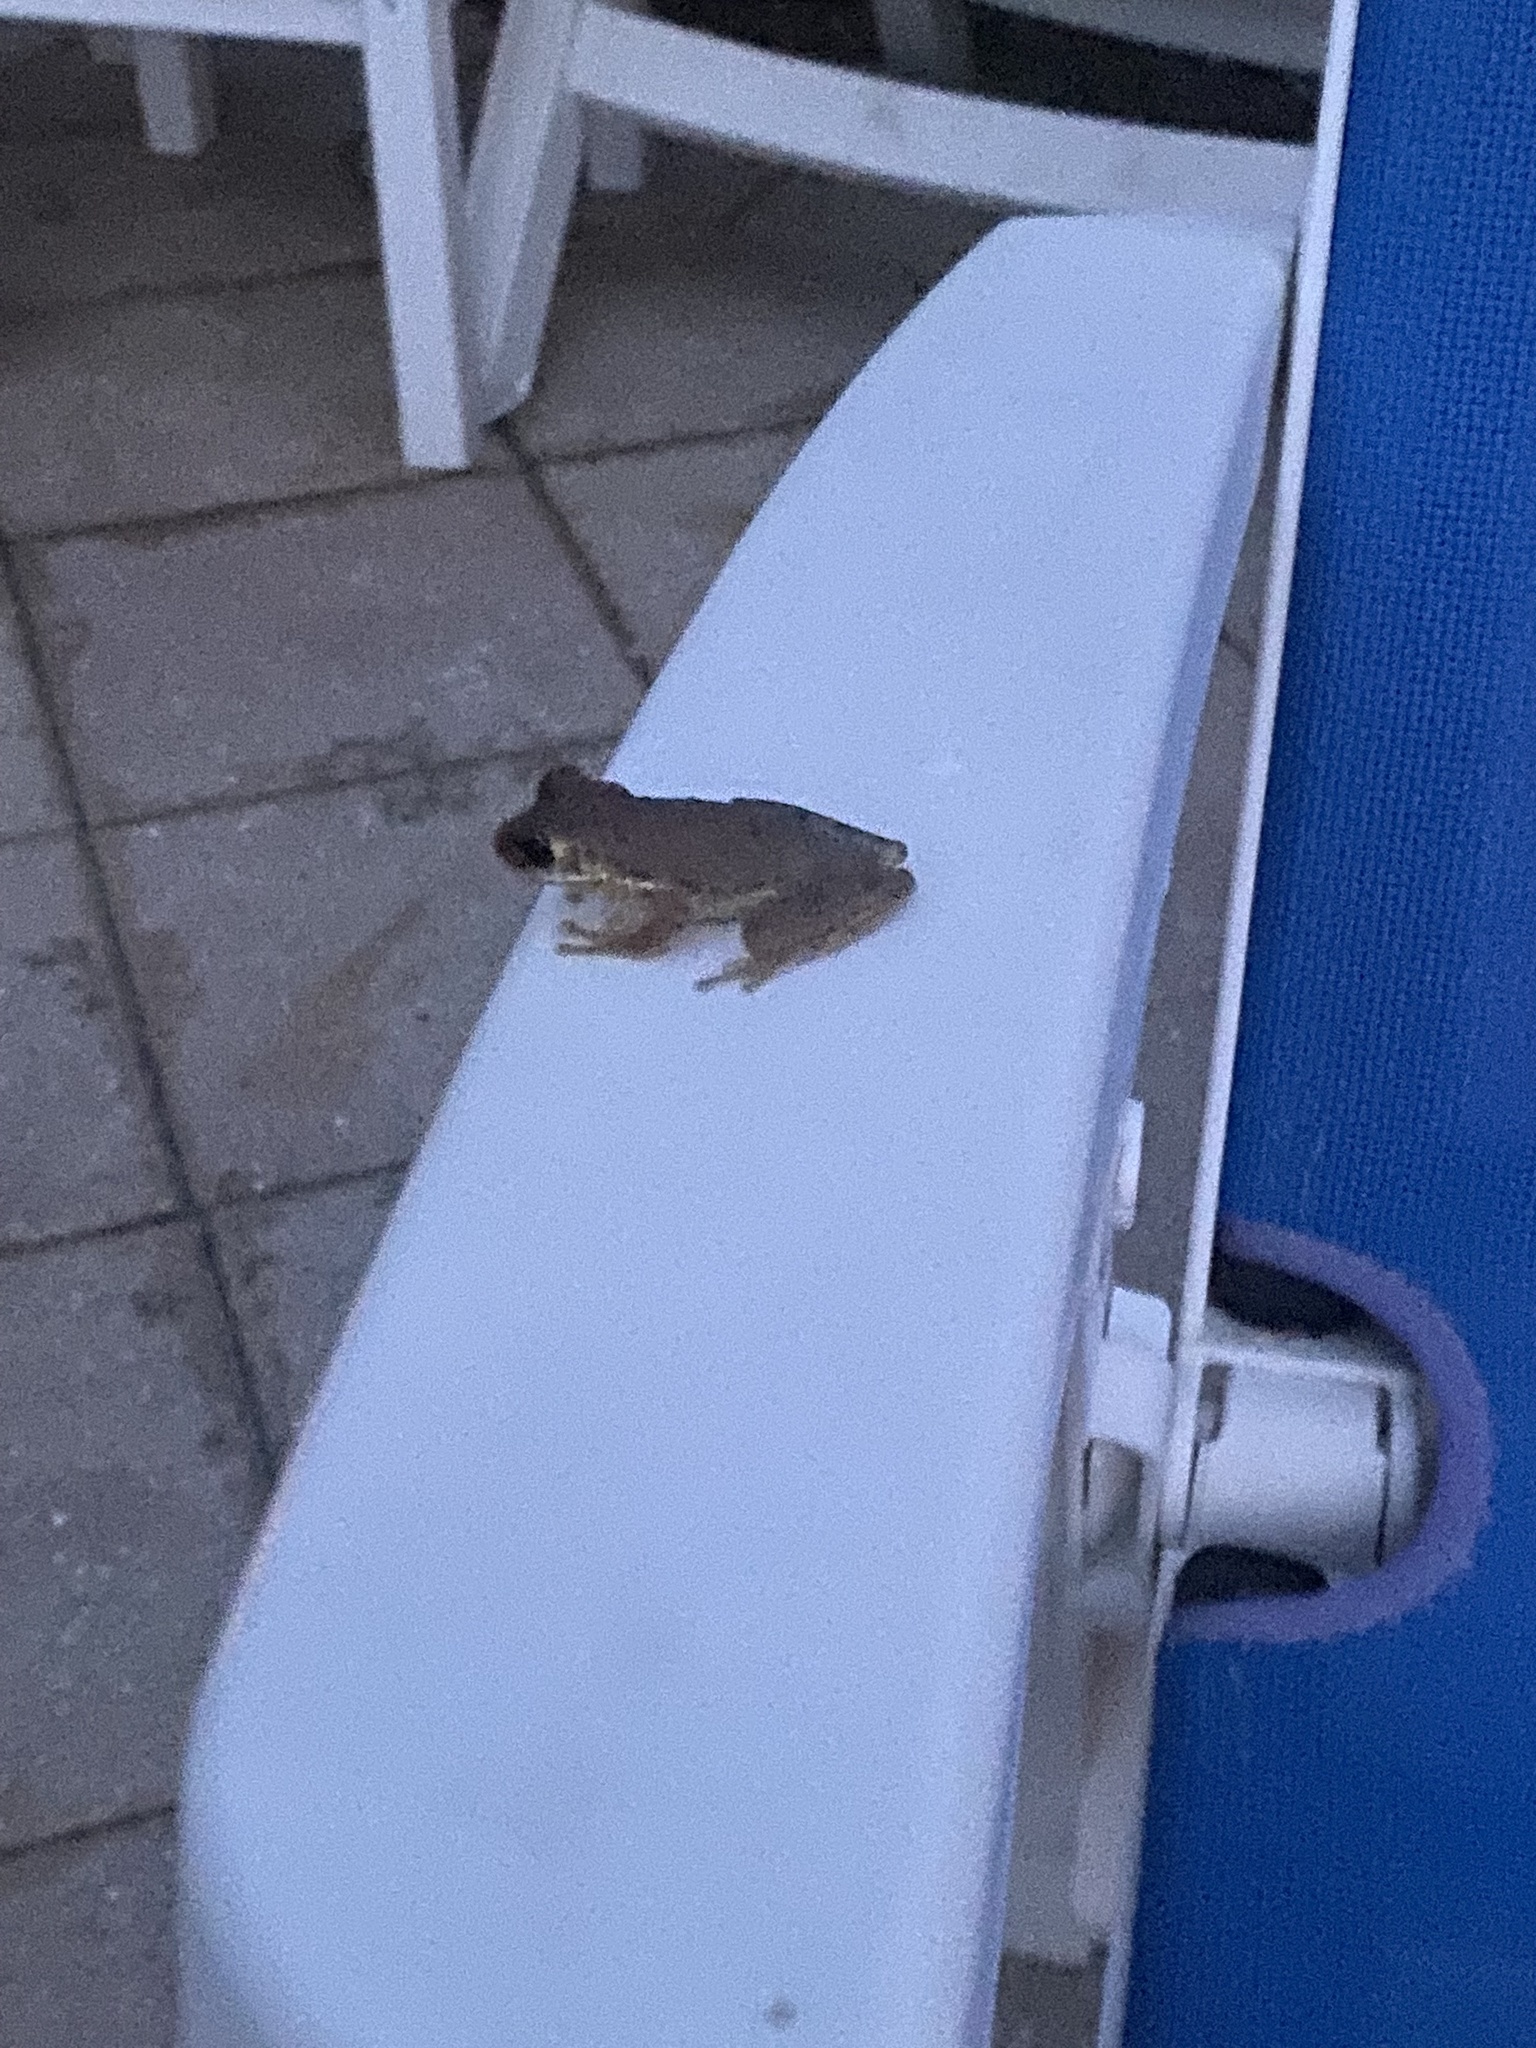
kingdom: Animalia
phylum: Chordata
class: Amphibia
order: Anura
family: Hylidae
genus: Osteopilus
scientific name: Osteopilus septentrionalis
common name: Cuban treefrog
